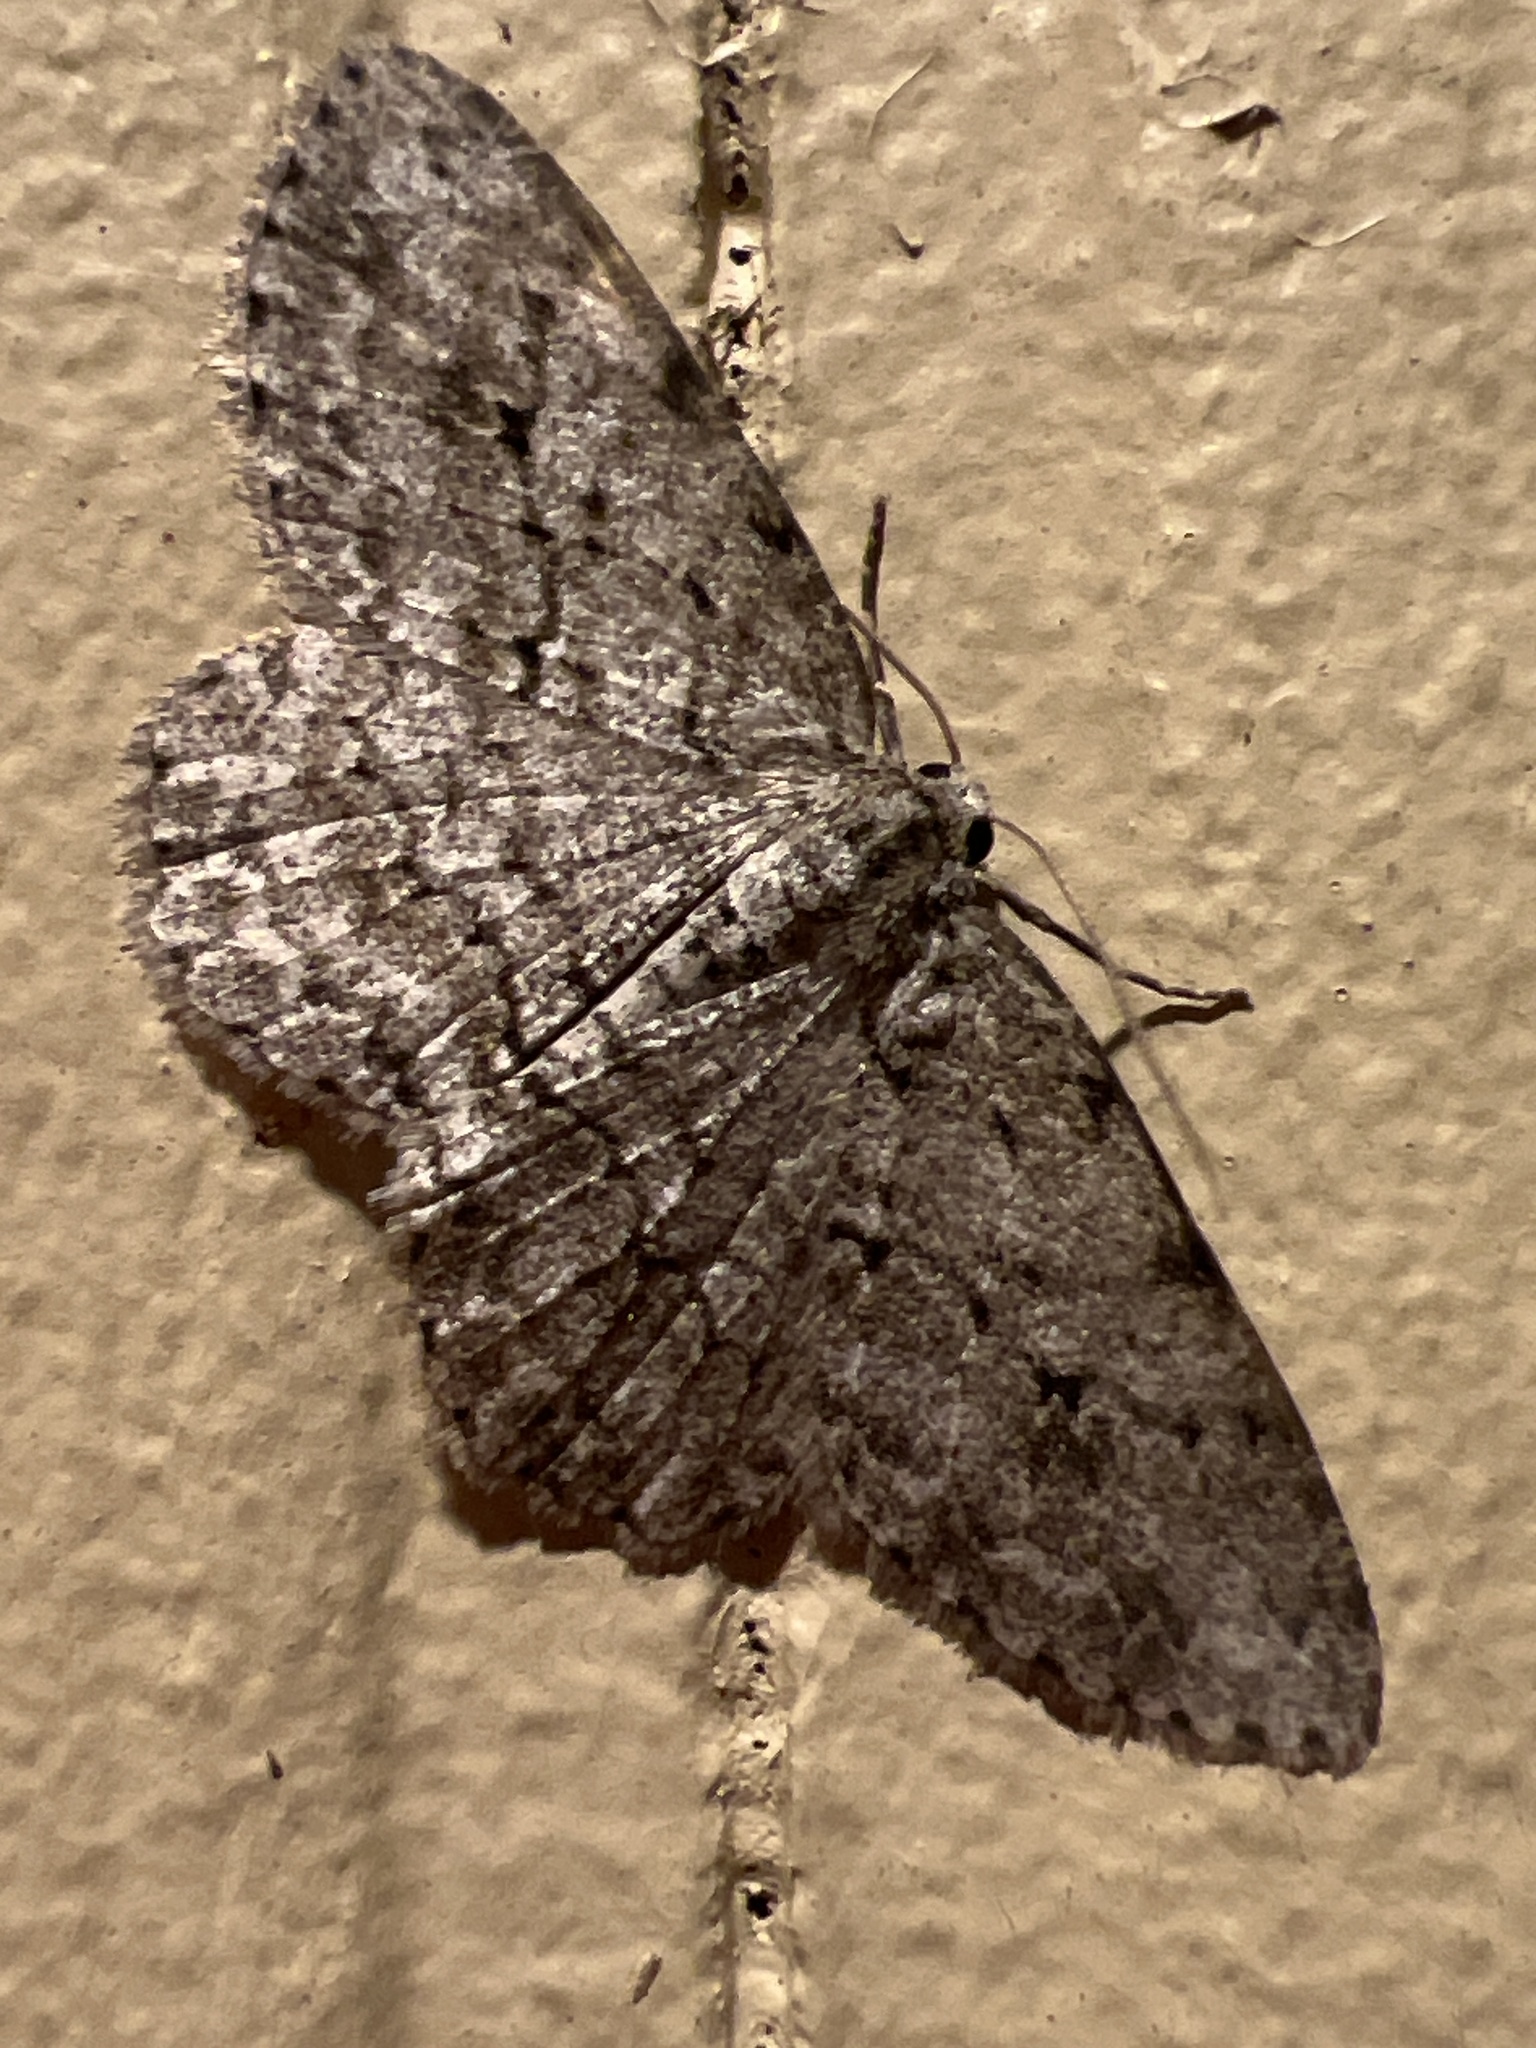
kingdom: Animalia
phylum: Arthropoda
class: Insecta
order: Lepidoptera
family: Geometridae
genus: Ectropis
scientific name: Ectropis crepuscularia
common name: Engrailed
